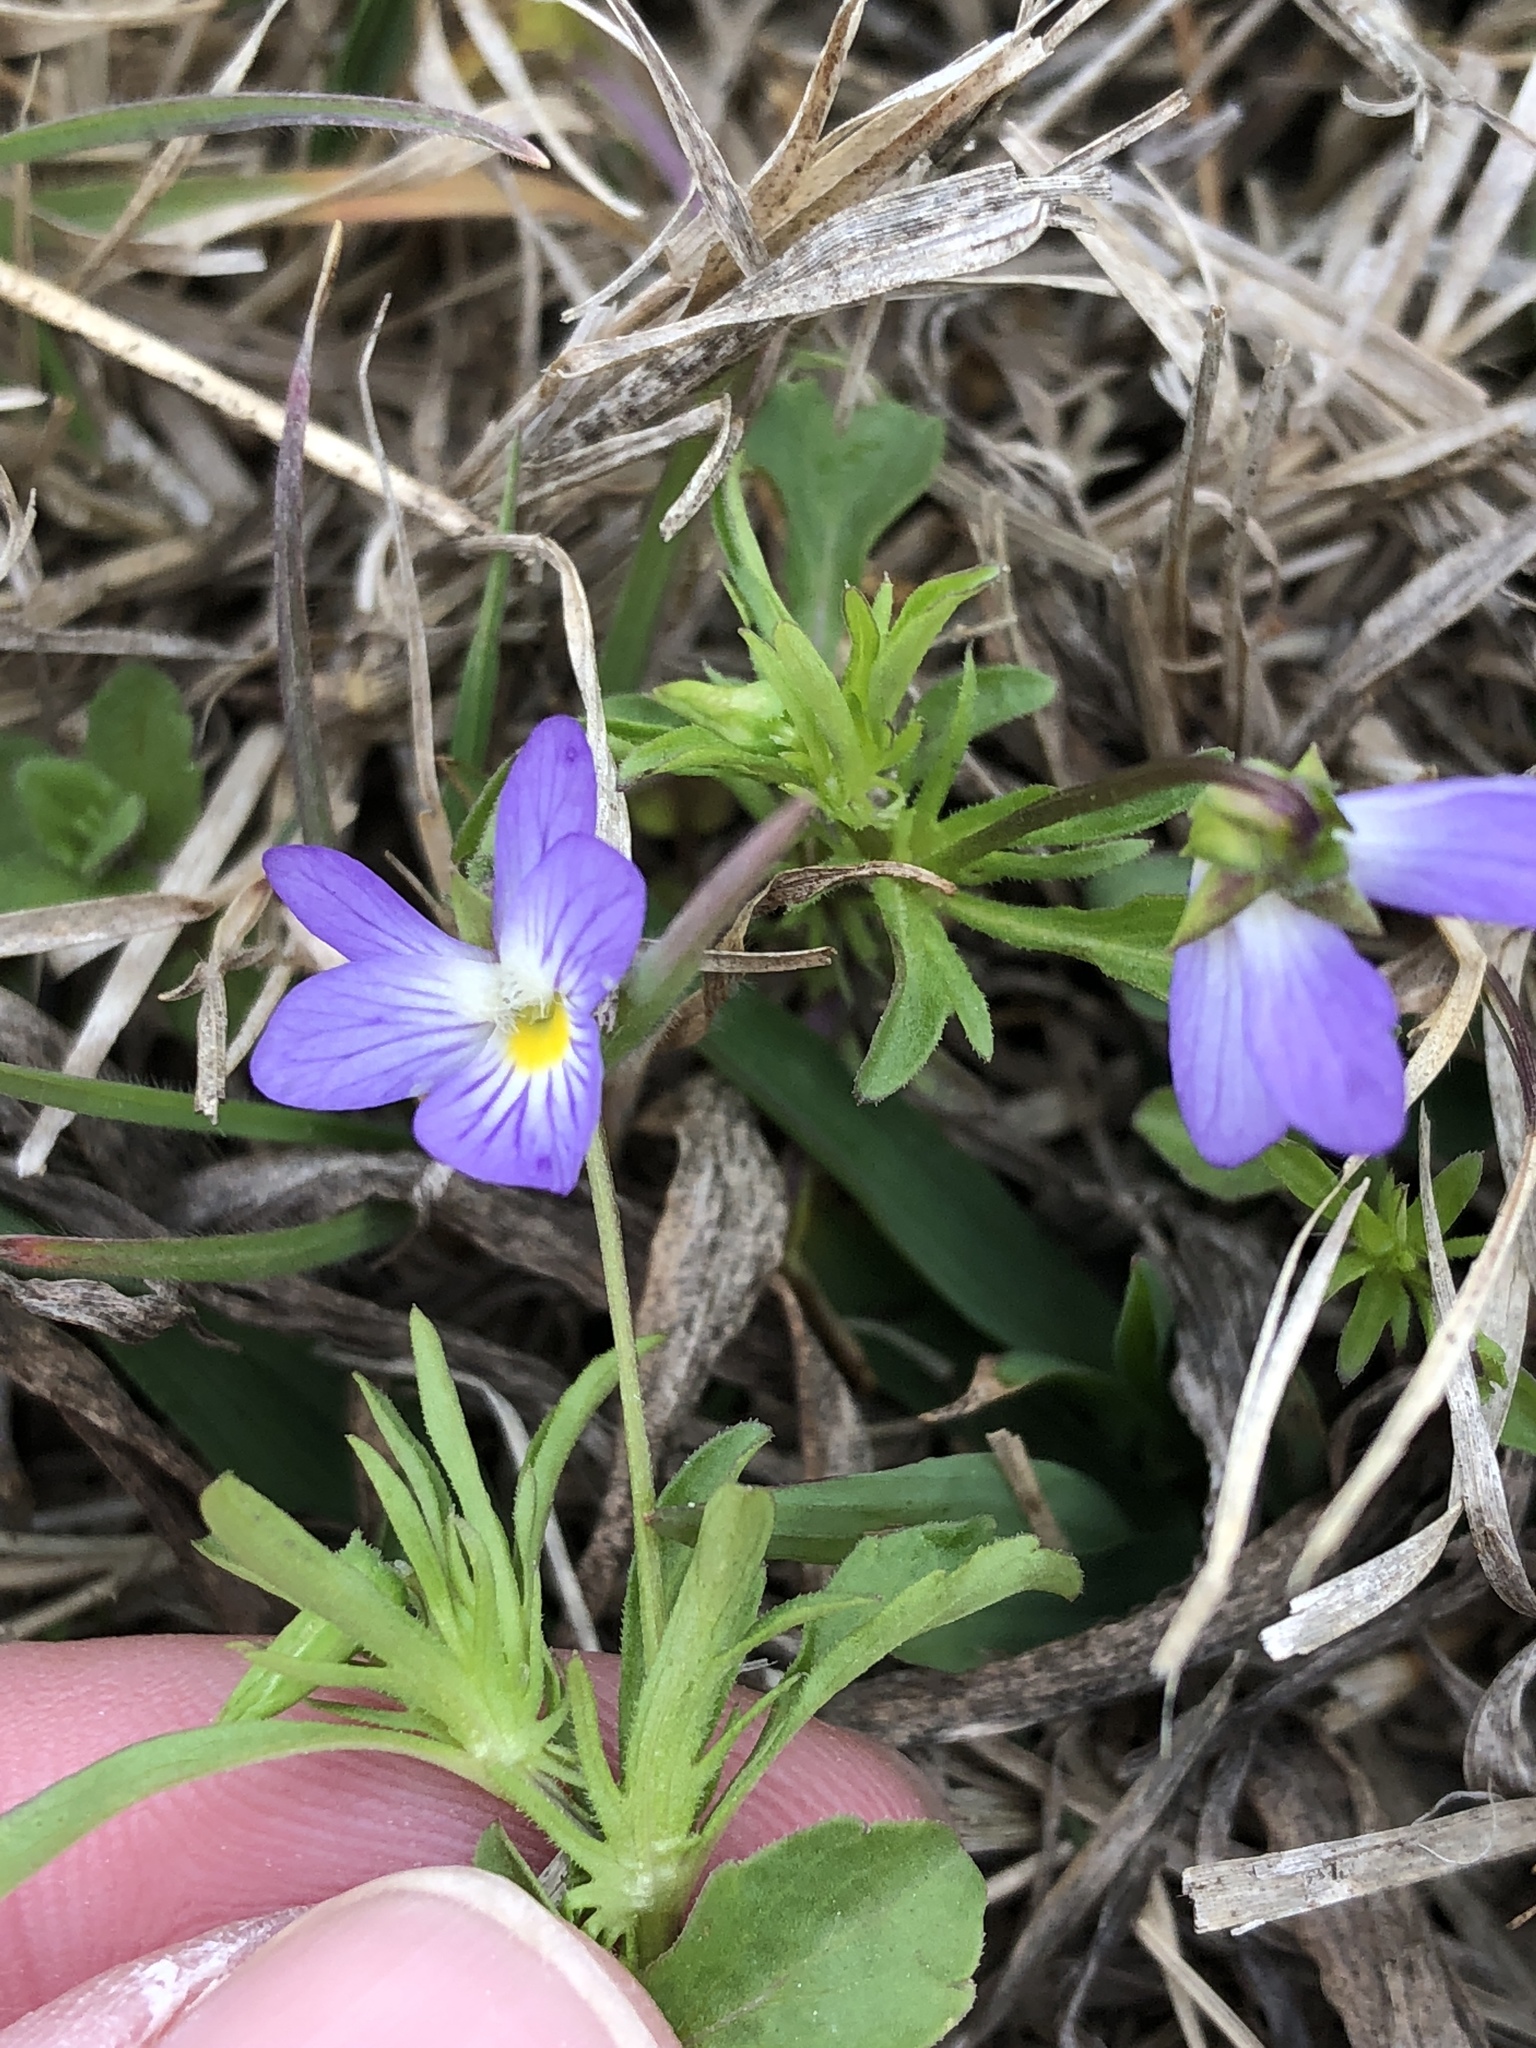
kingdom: Plantae
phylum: Tracheophyta
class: Magnoliopsida
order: Malpighiales
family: Violaceae
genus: Viola
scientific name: Viola rafinesquei
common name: American field pansy
